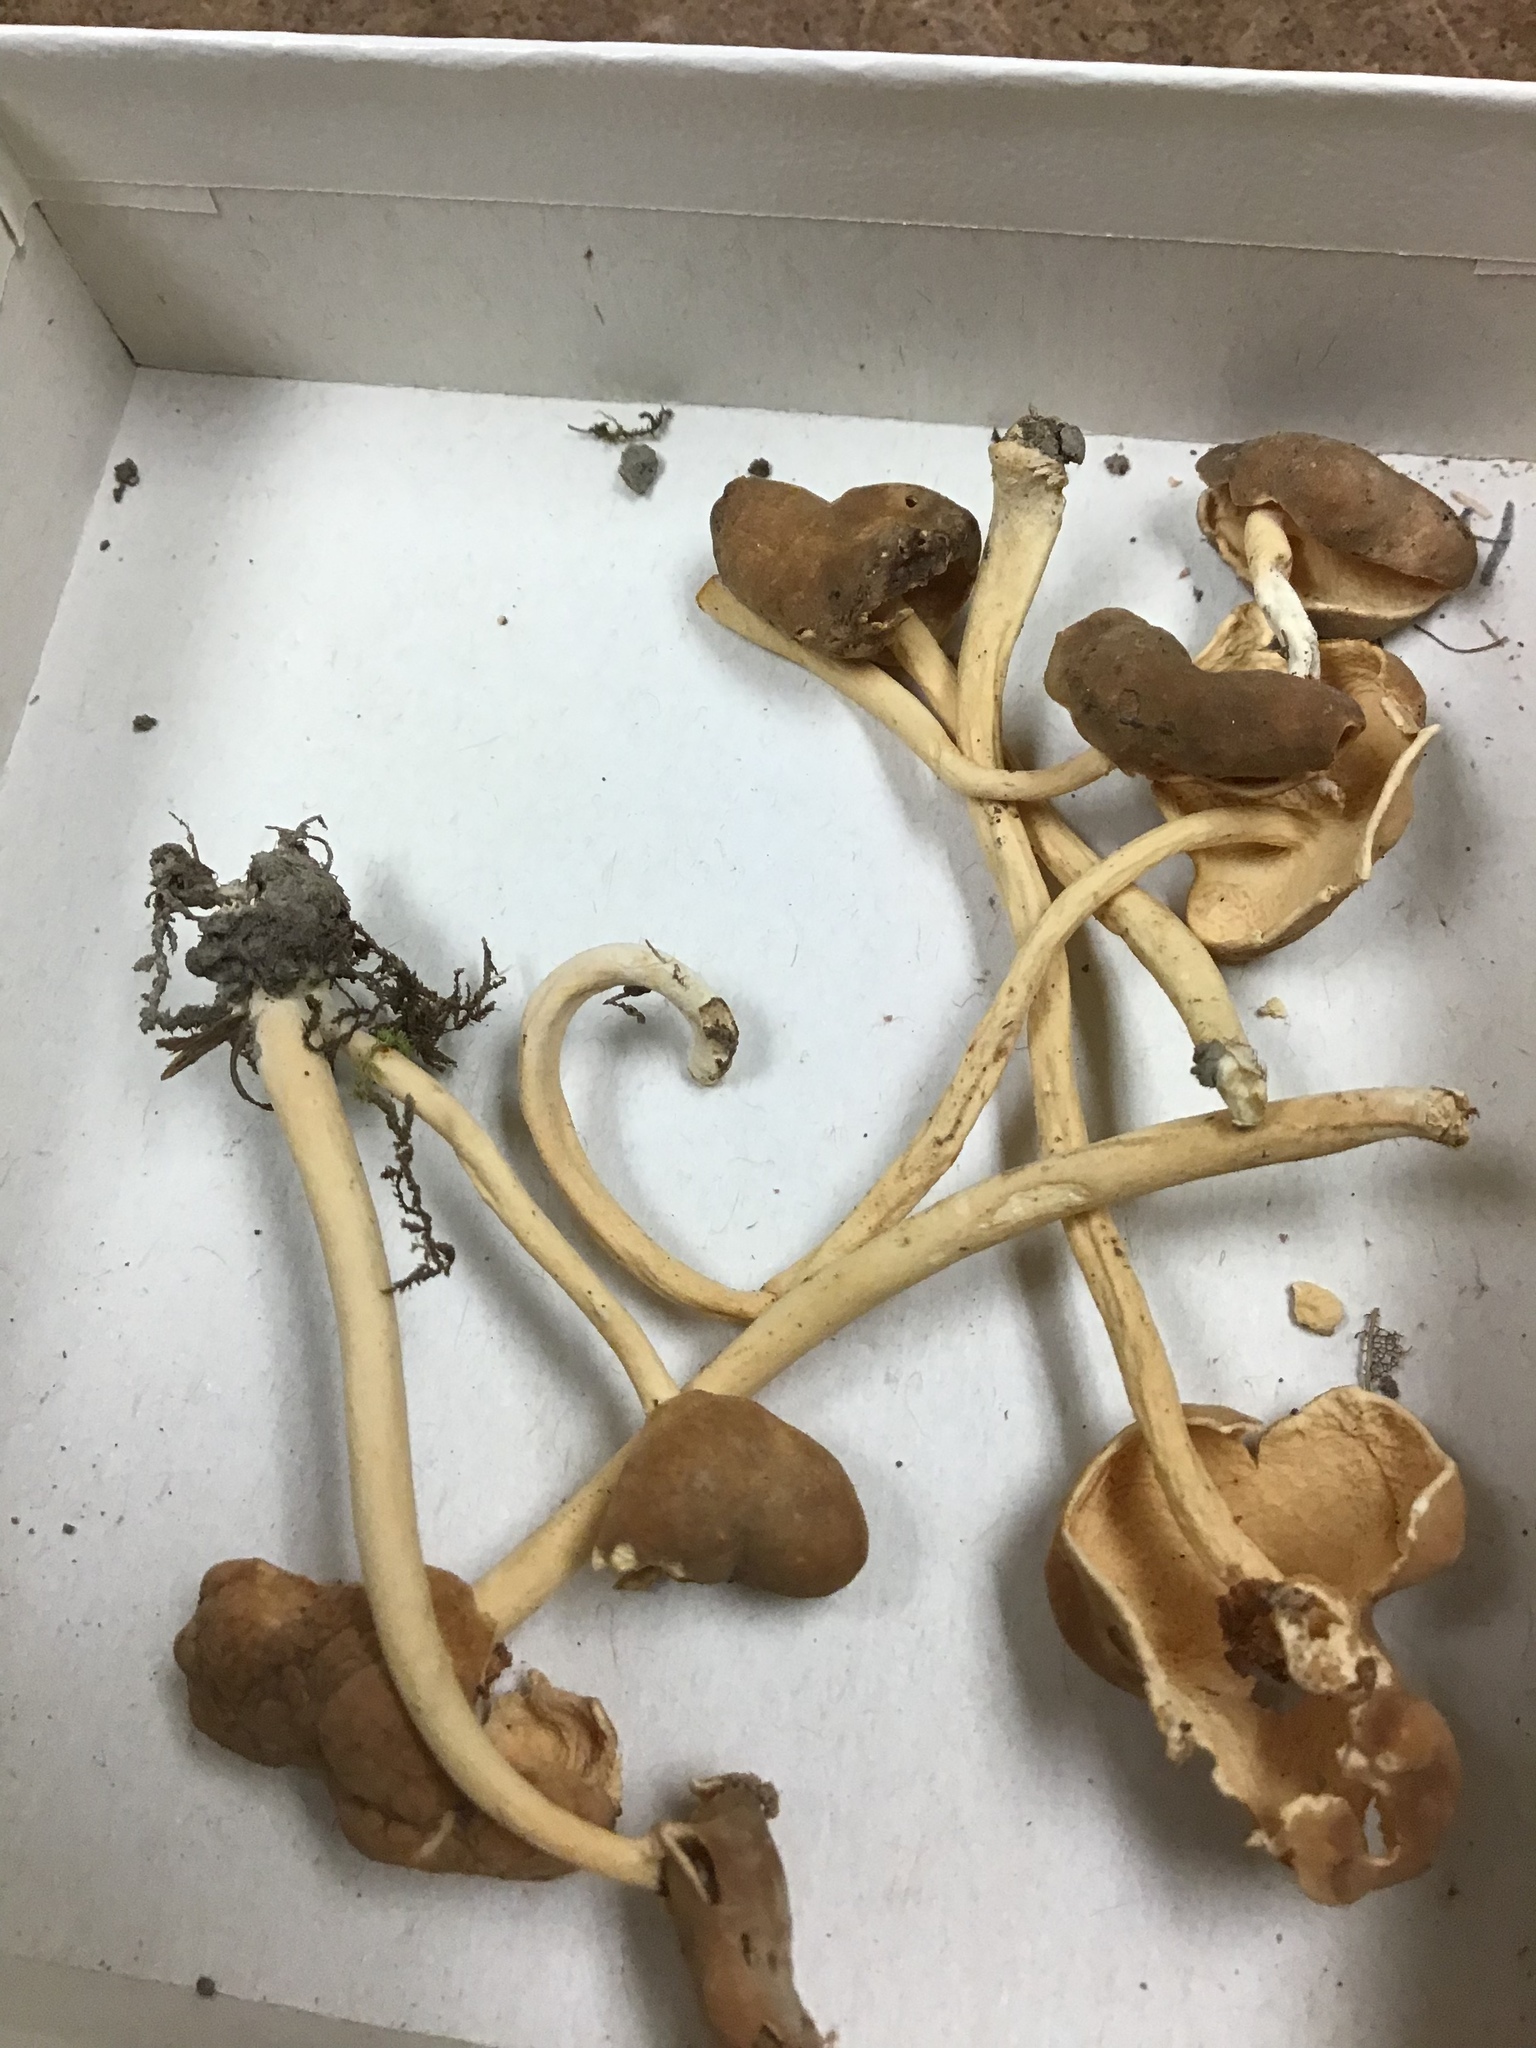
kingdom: Fungi
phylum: Ascomycota
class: Pezizomycetes
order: Pezizales
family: Helvellaceae
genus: Helvella
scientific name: Helvella elastica
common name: Elastic saddle
